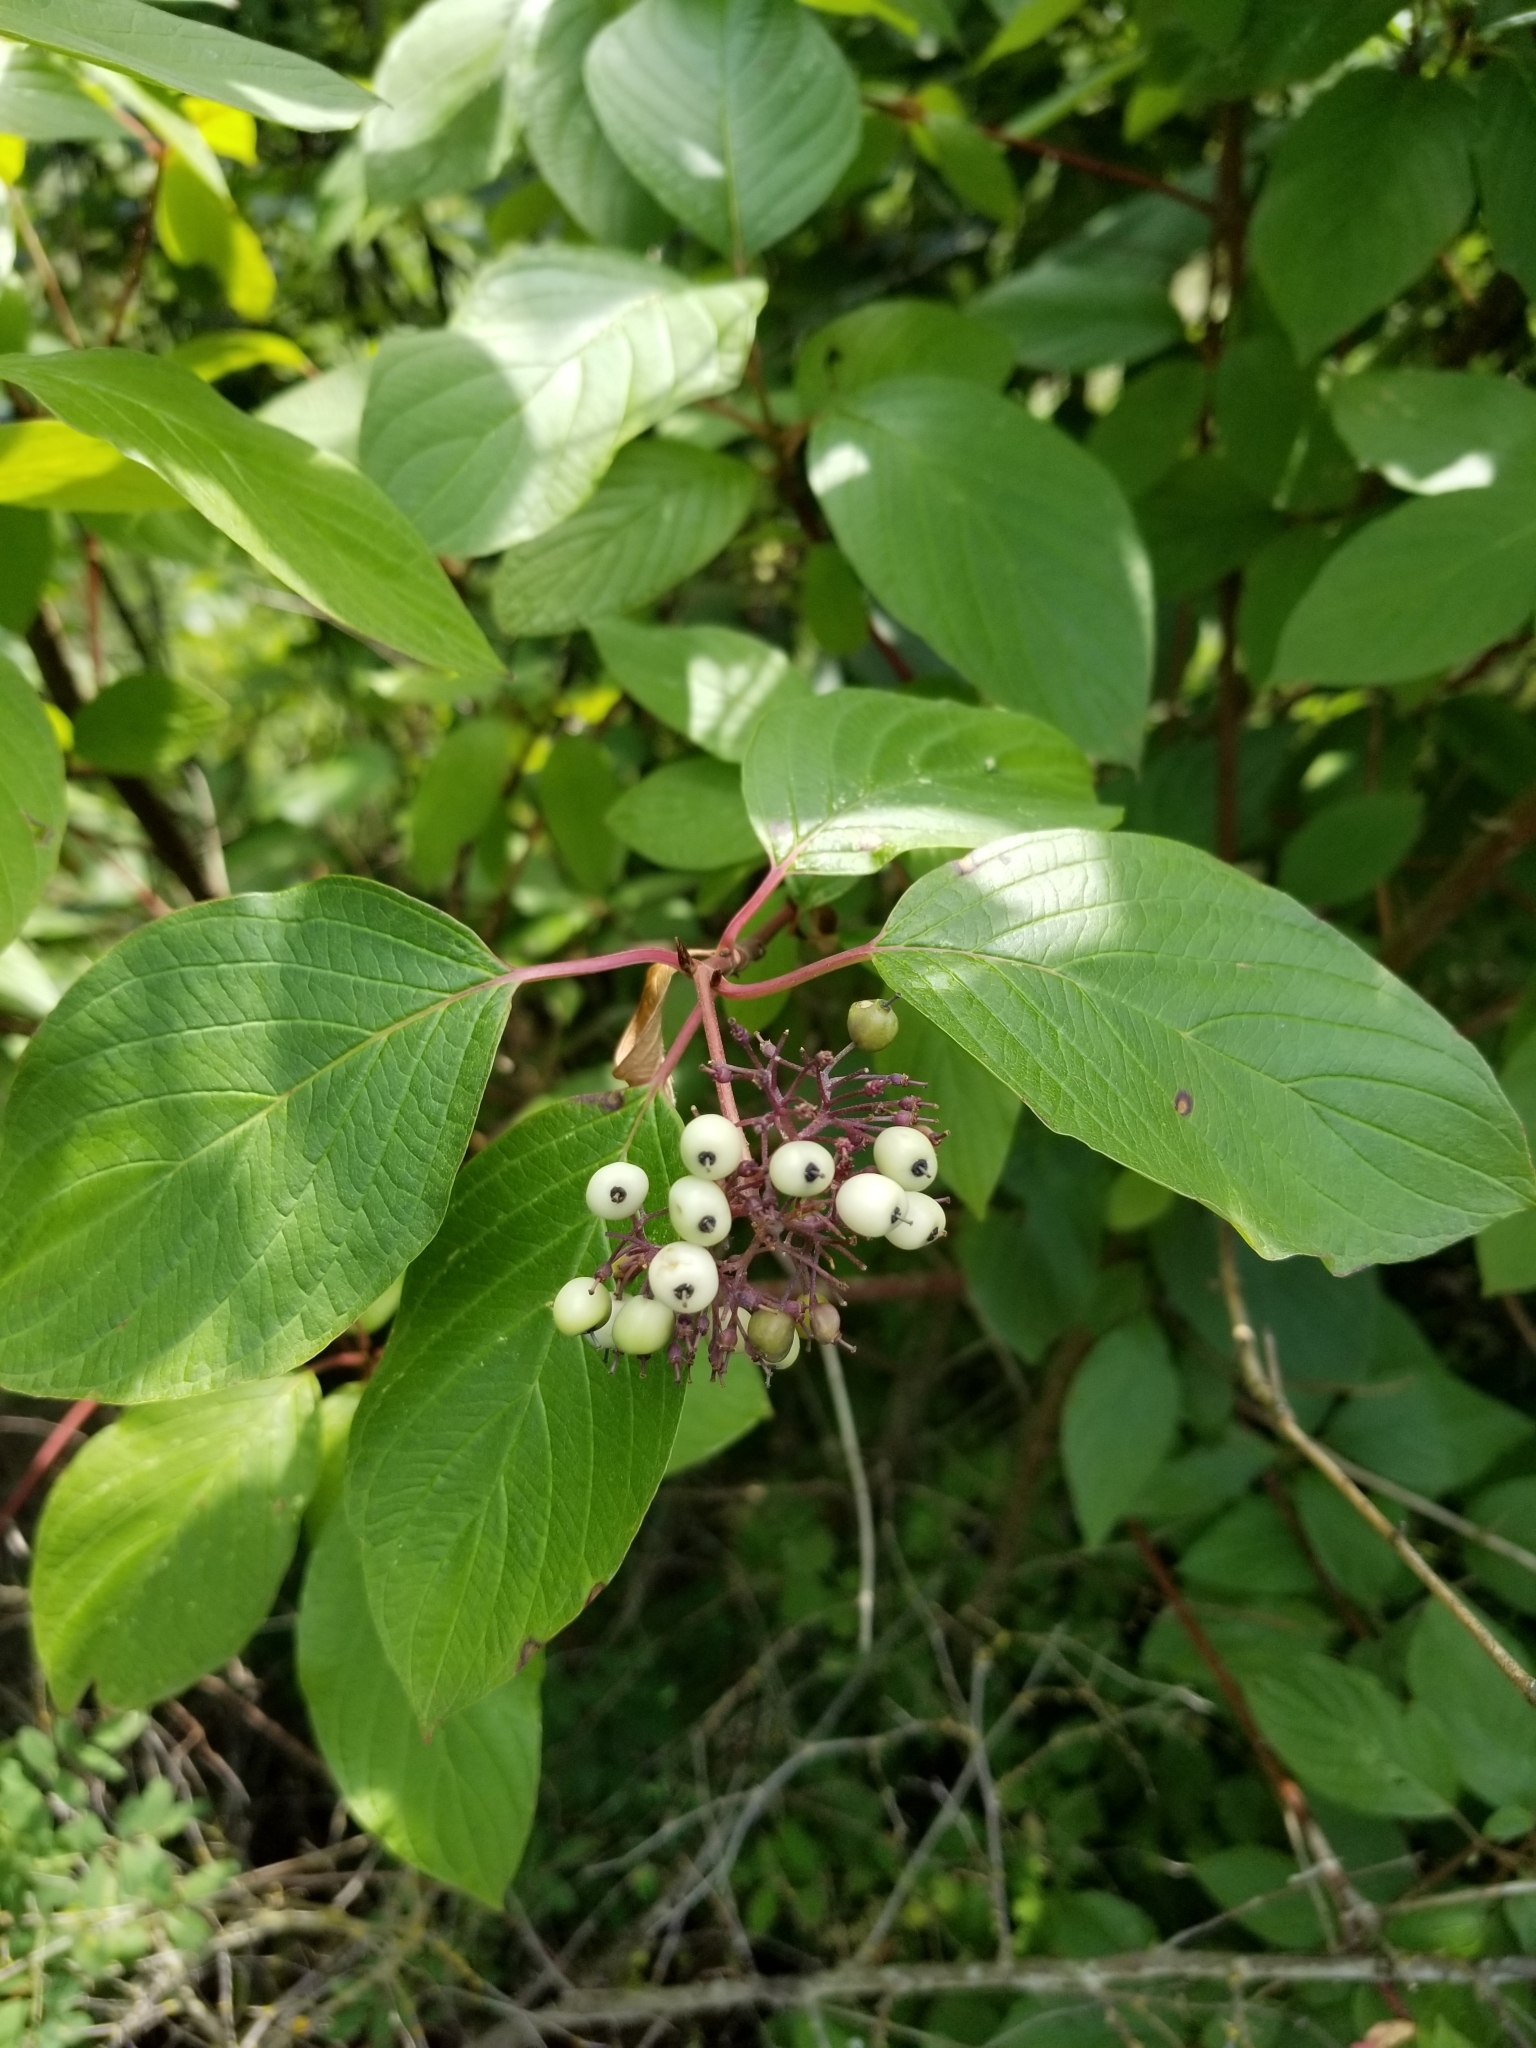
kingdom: Plantae
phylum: Tracheophyta
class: Magnoliopsida
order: Cornales
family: Cornaceae
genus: Cornus
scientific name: Cornus sericea
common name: Red-osier dogwood
